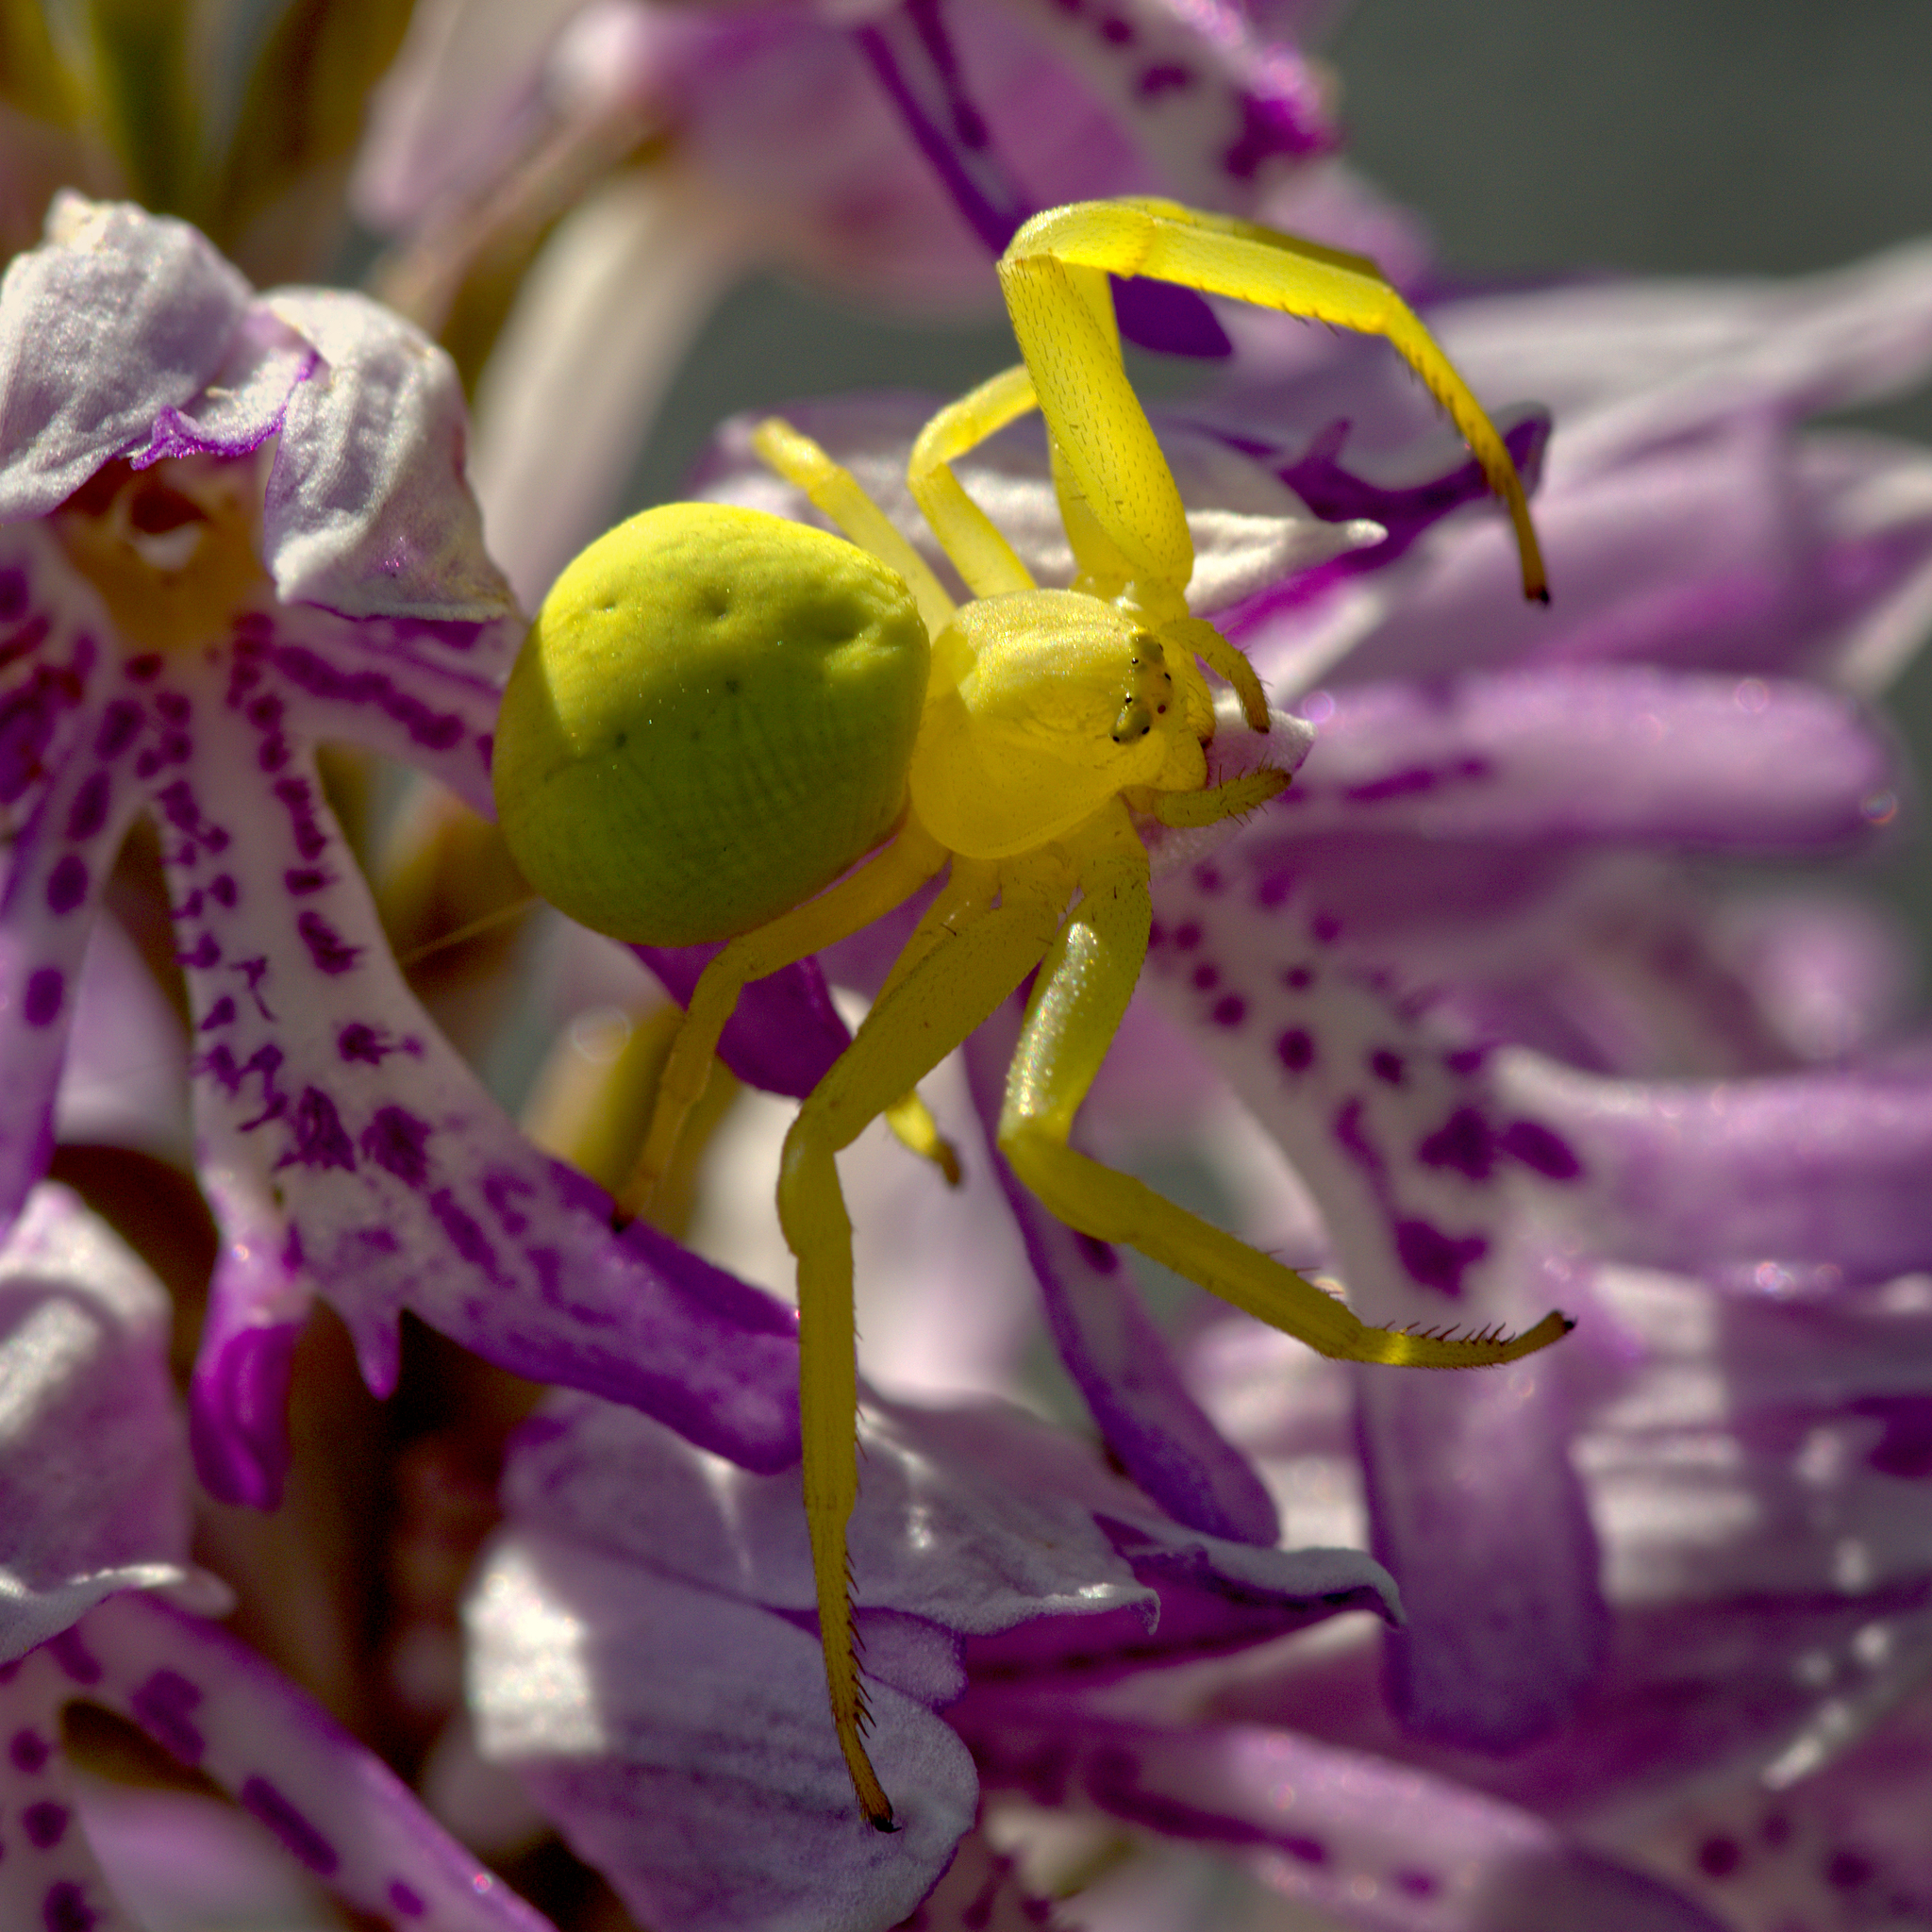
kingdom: Animalia
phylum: Arthropoda
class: Arachnida
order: Araneae
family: Thomisidae
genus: Misumena
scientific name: Misumena vatia
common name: Goldenrod crab spider
